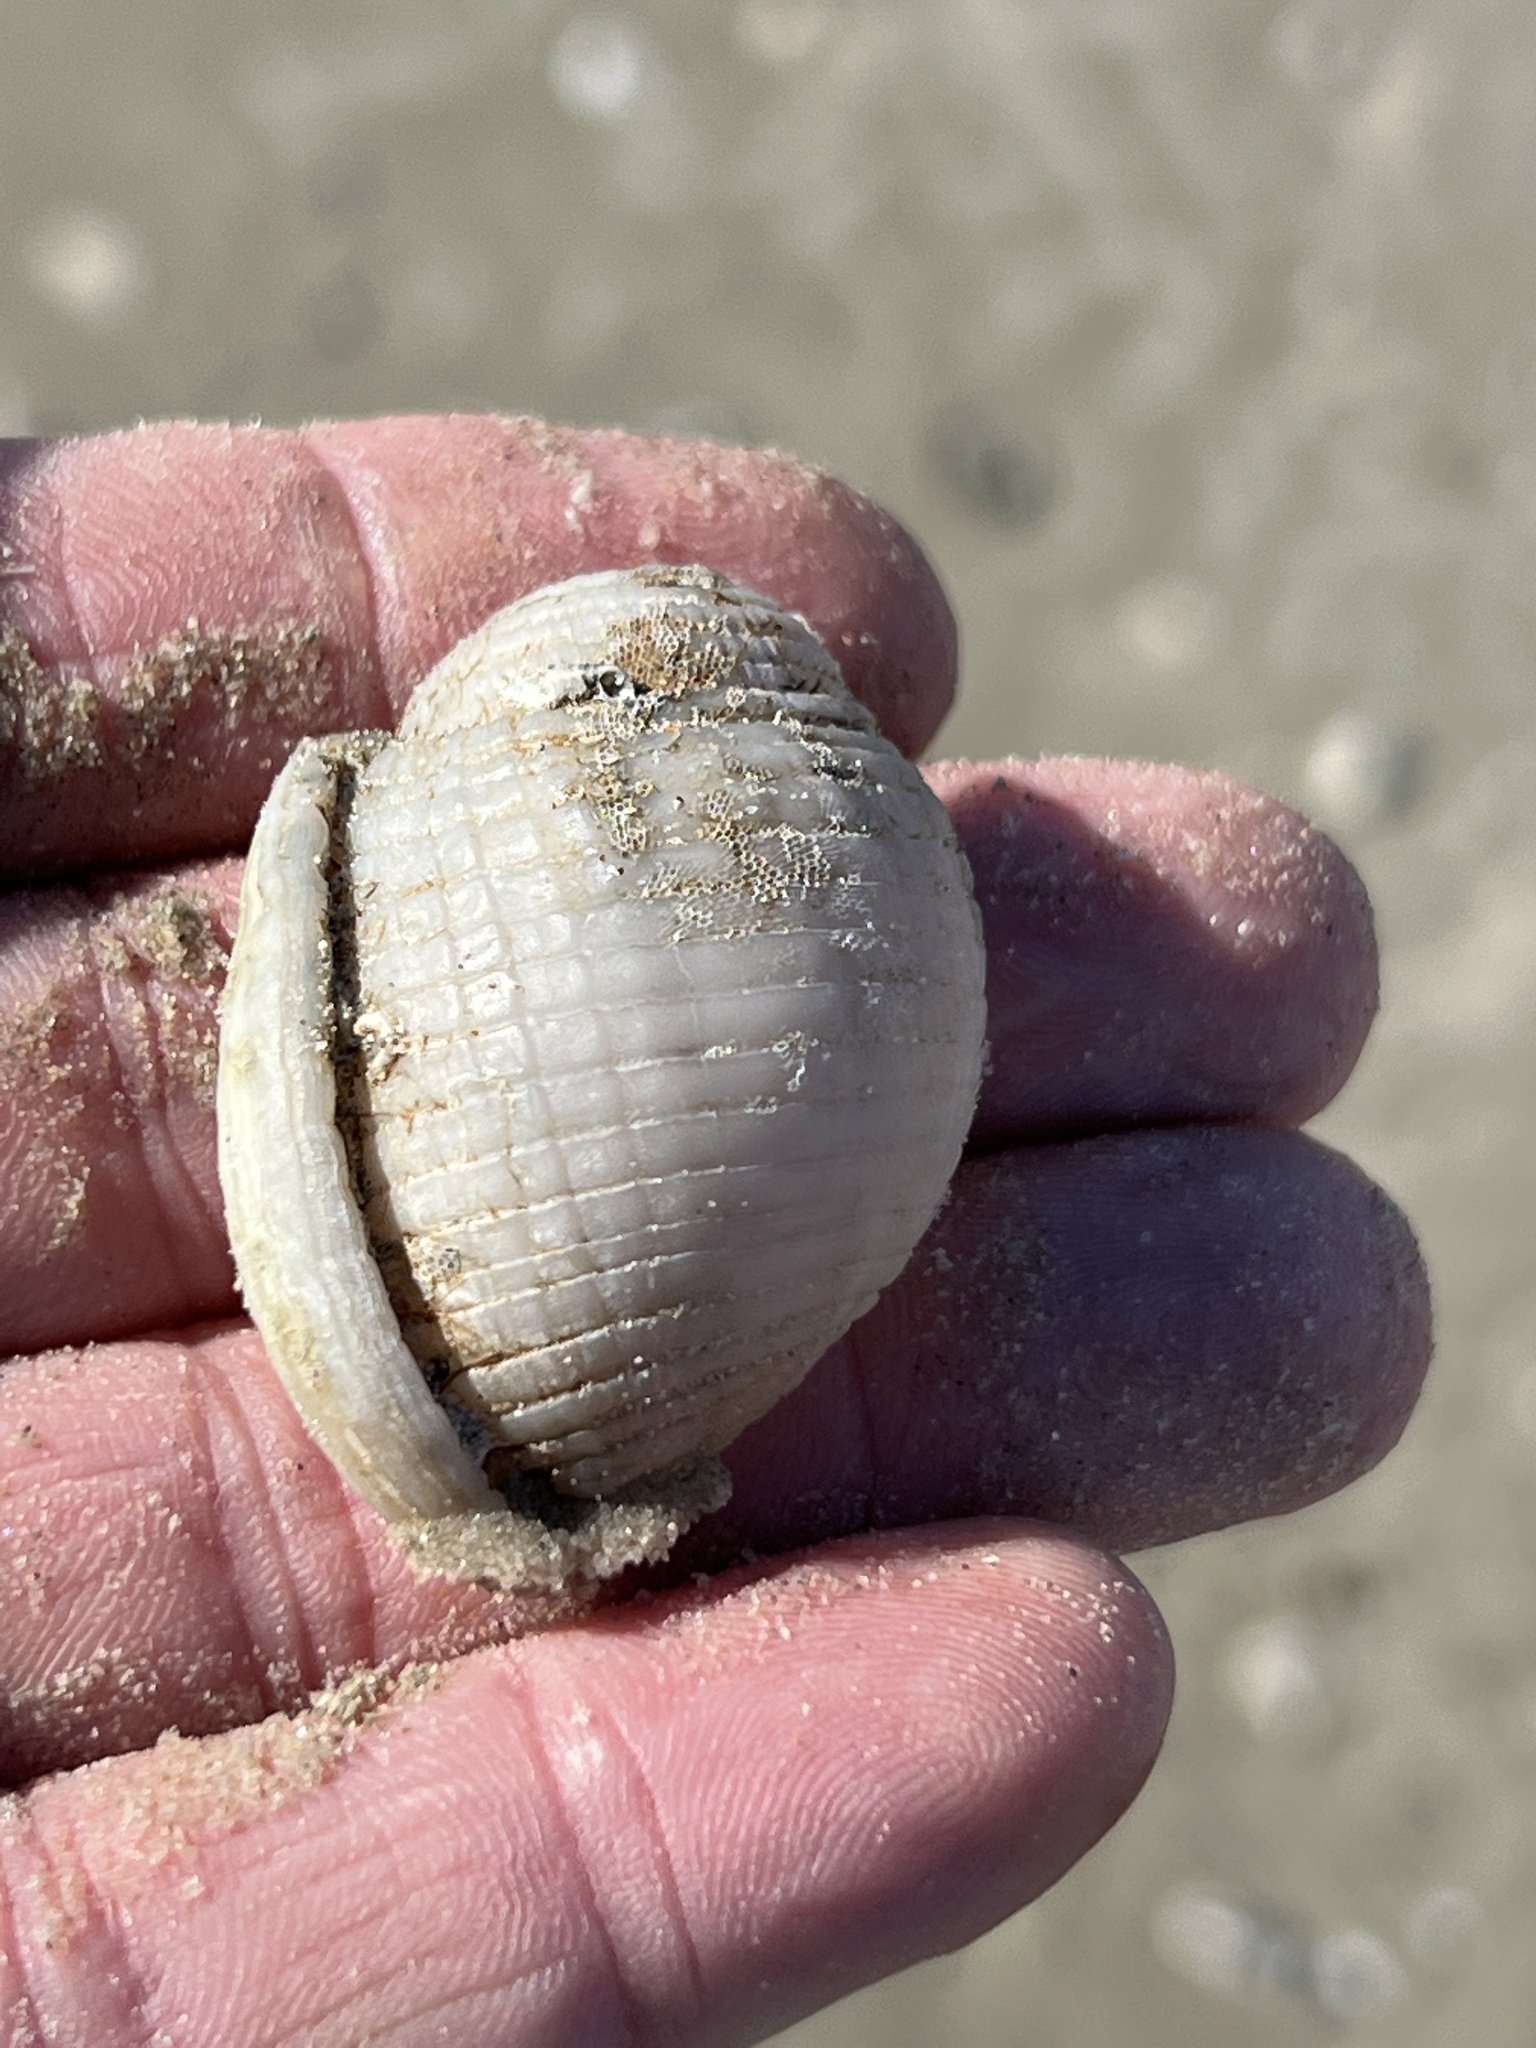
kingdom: Animalia
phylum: Mollusca
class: Gastropoda
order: Littorinimorpha
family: Cassidae
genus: Semicassis
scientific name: Semicassis granulata
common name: Scotch bonnet
